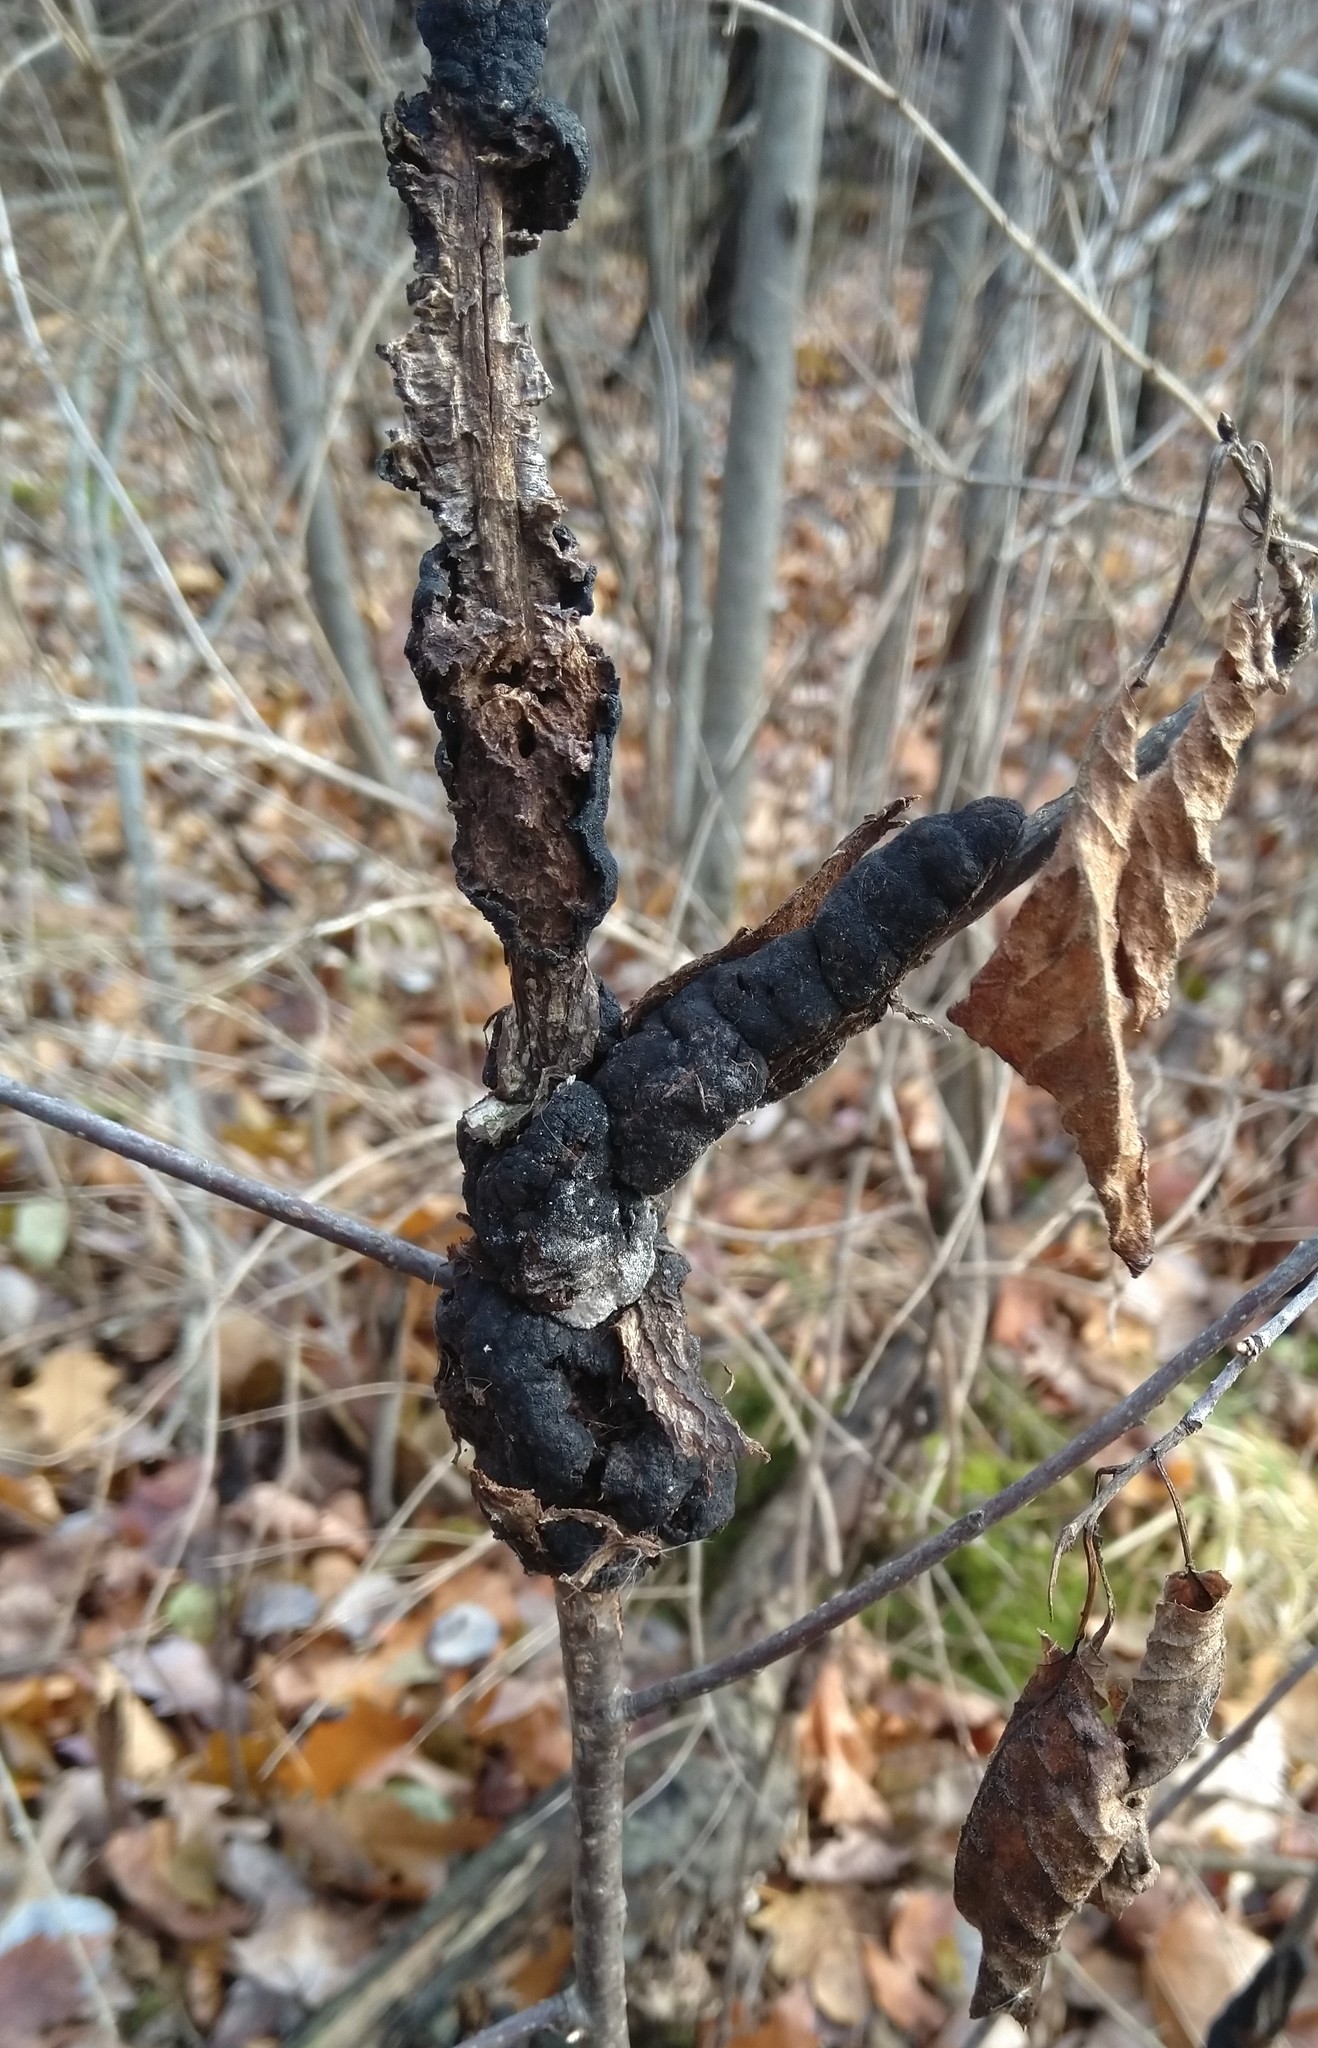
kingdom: Fungi
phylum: Ascomycota
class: Dothideomycetes
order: Venturiales
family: Venturiaceae
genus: Apiosporina
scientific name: Apiosporina morbosa
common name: Black knot
